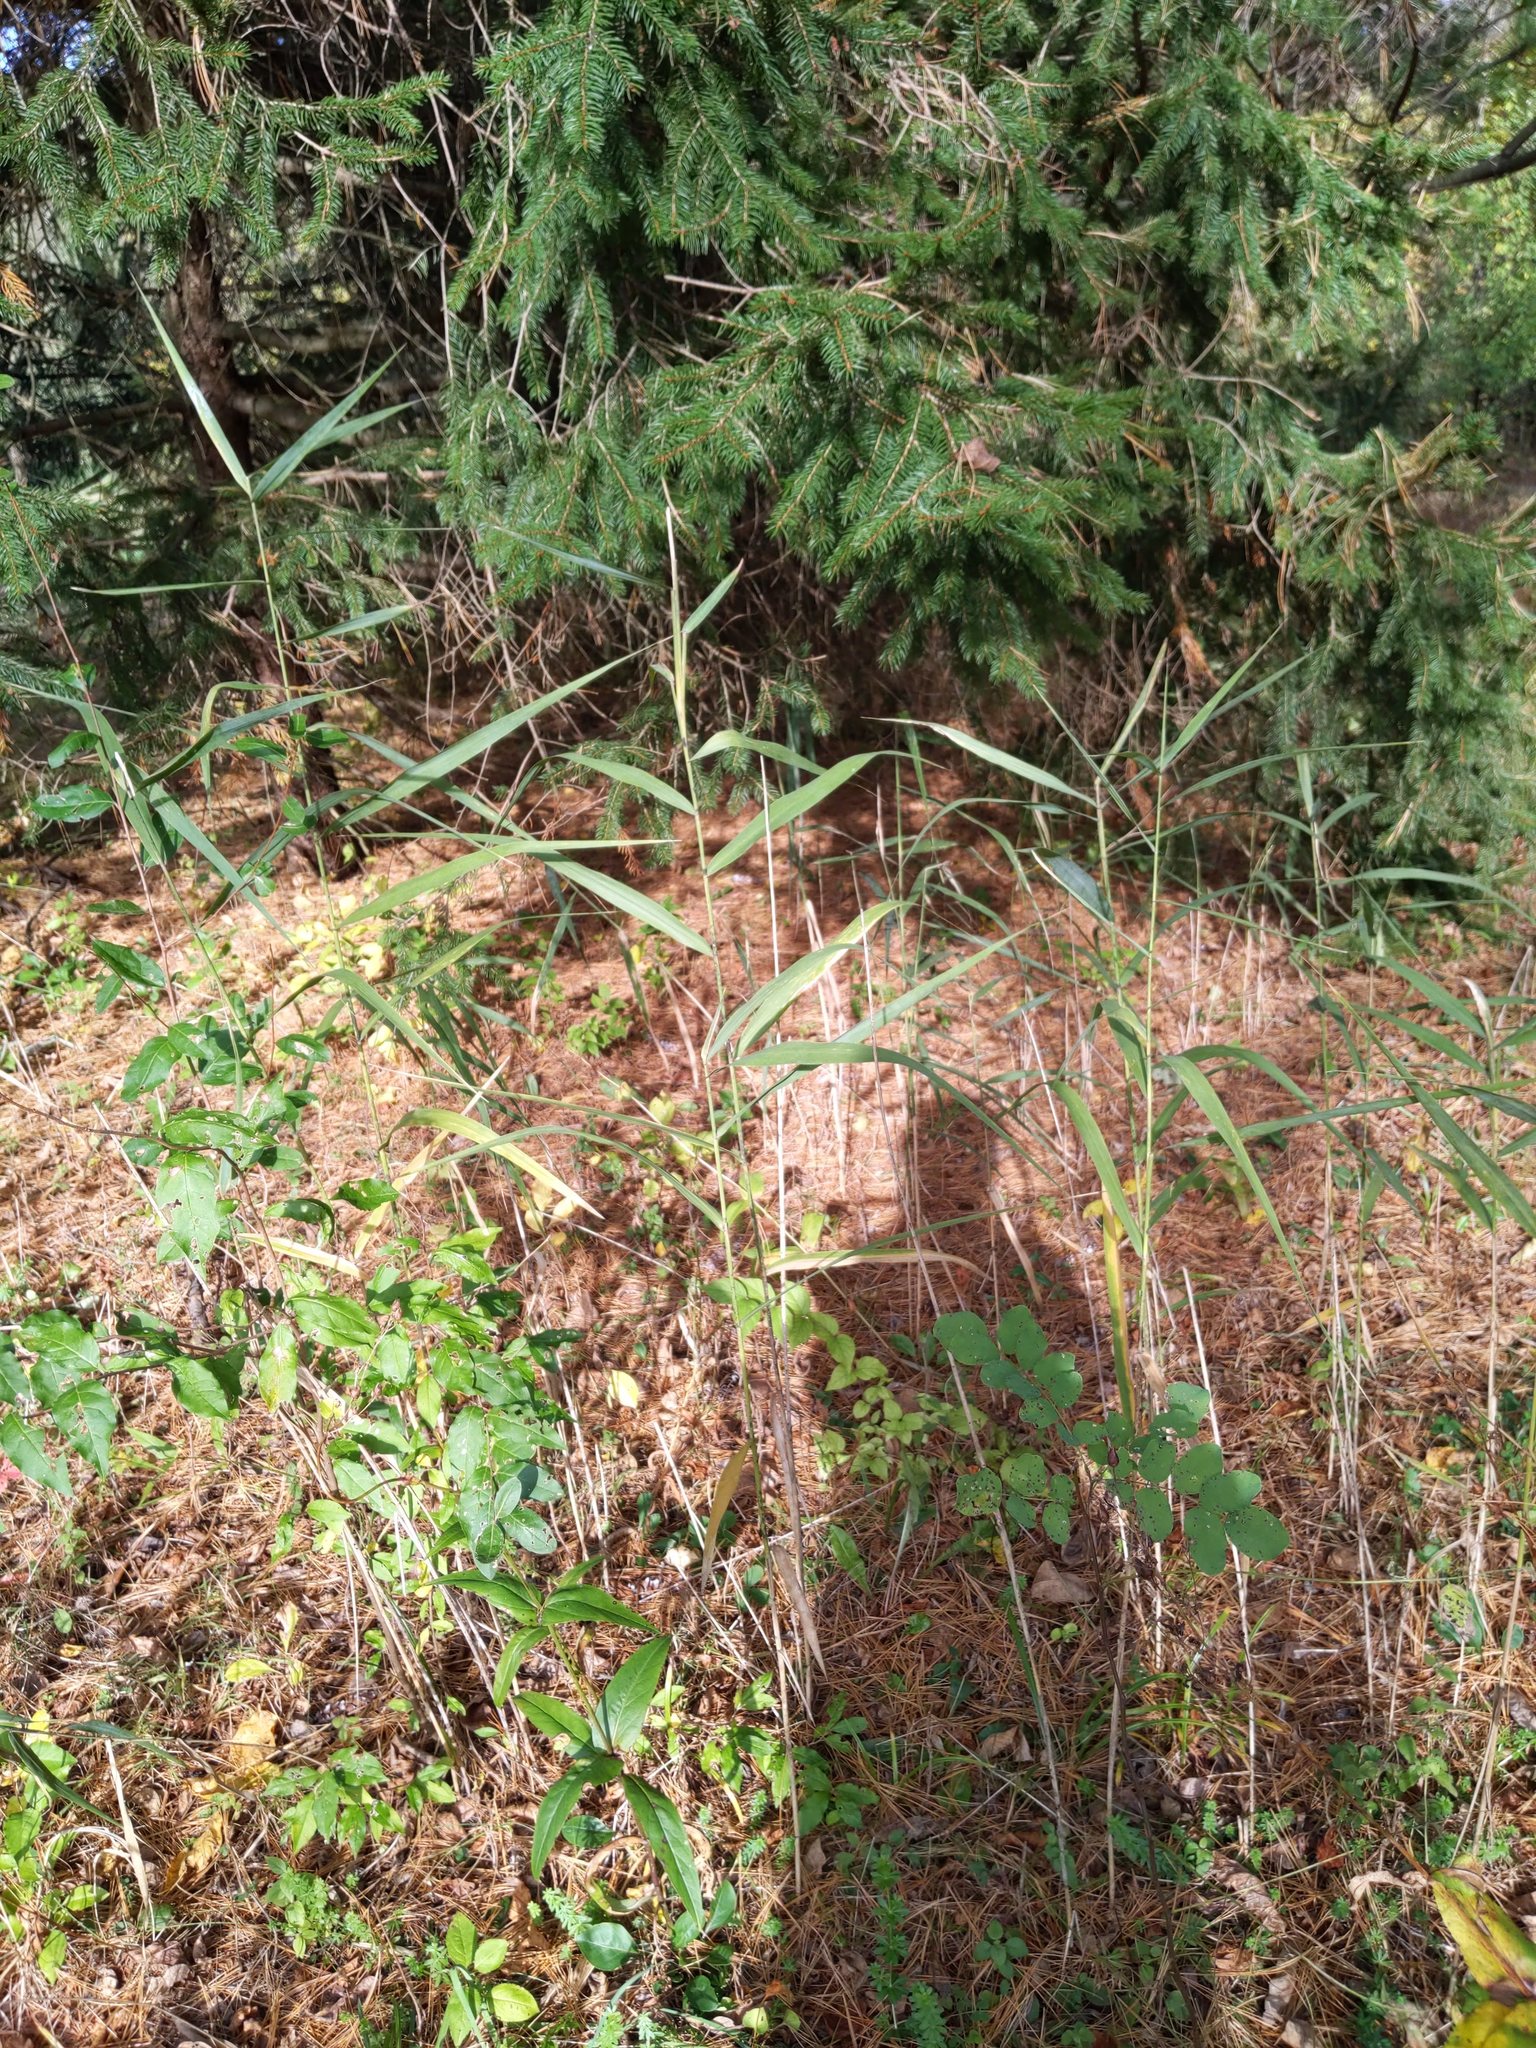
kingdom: Plantae
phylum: Tracheophyta
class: Liliopsida
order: Poales
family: Poaceae
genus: Dactylis
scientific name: Dactylis glomerata
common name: Orchardgrass
